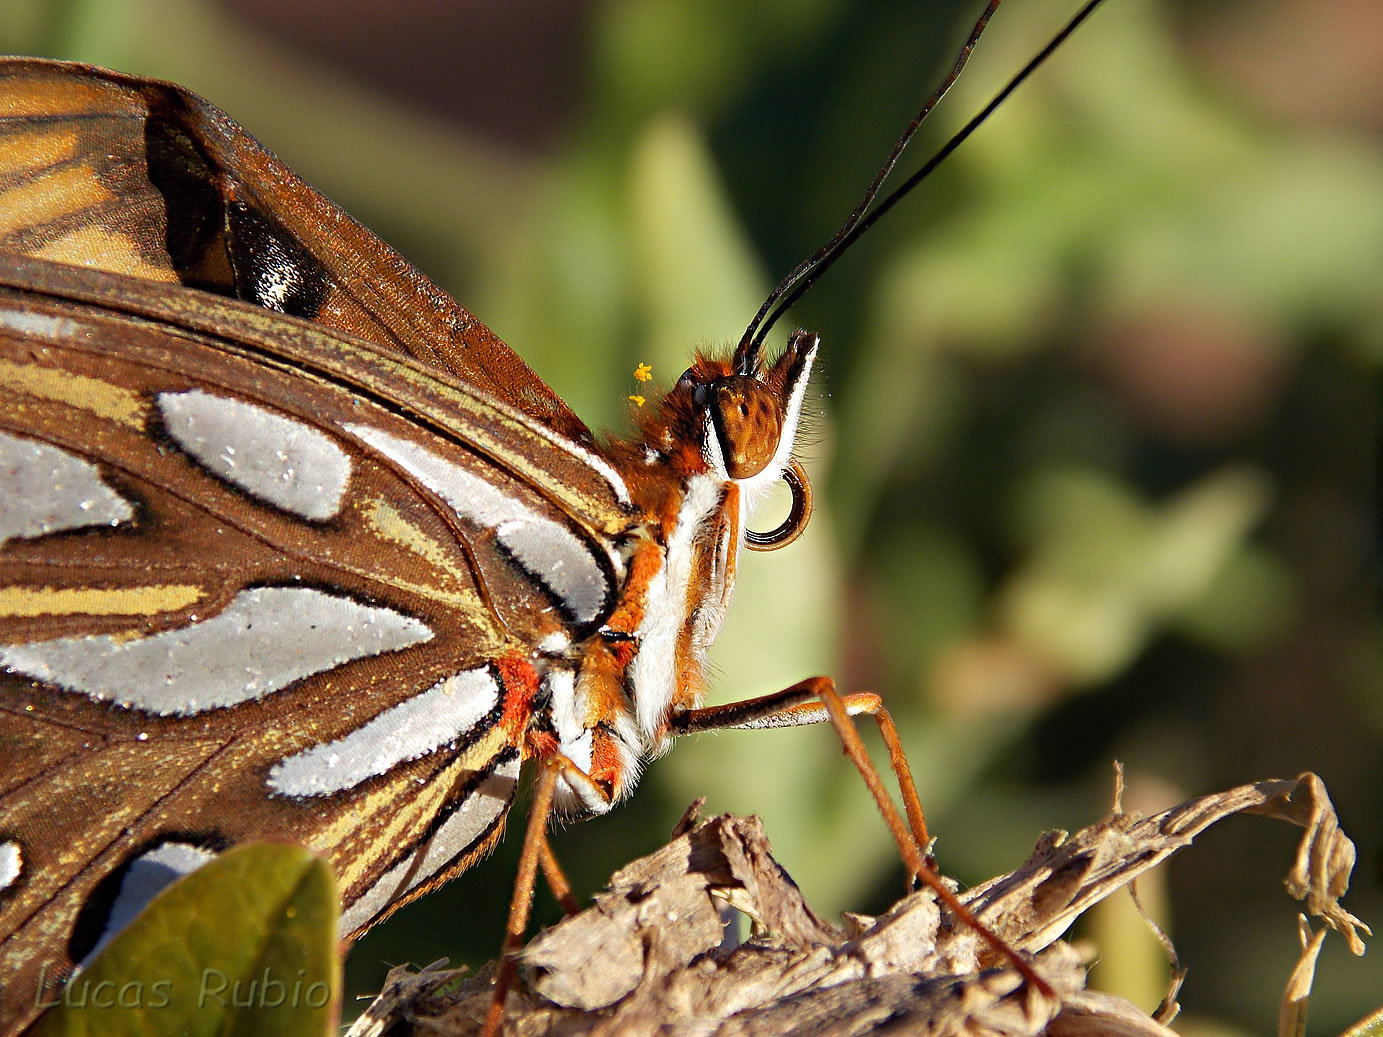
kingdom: Animalia
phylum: Arthropoda
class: Insecta
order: Lepidoptera
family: Nymphalidae
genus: Dione
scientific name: Dione vanillae
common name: Gulf fritillary
